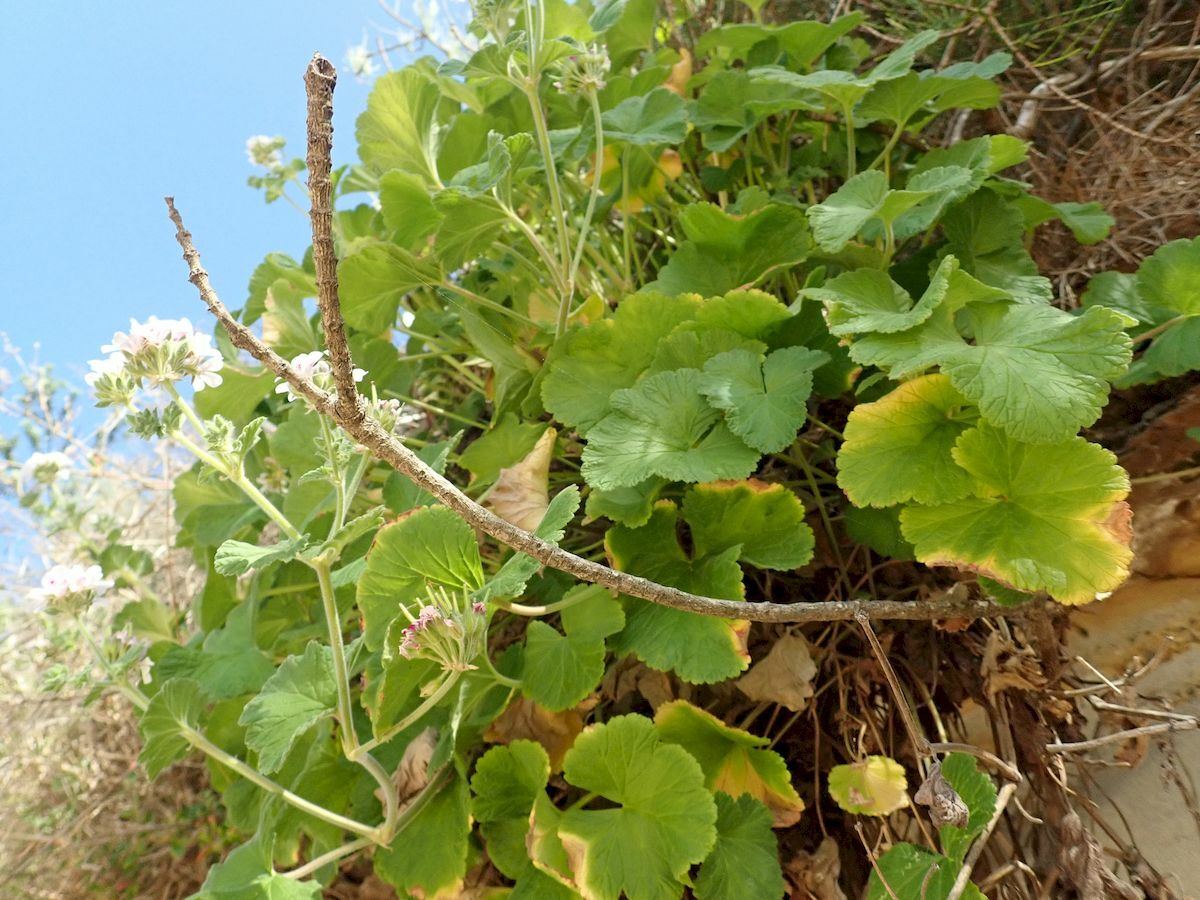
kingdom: Plantae
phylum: Tracheophyta
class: Magnoliopsida
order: Geraniales
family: Geraniaceae
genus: Pelargonium
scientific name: Pelargonium australe
